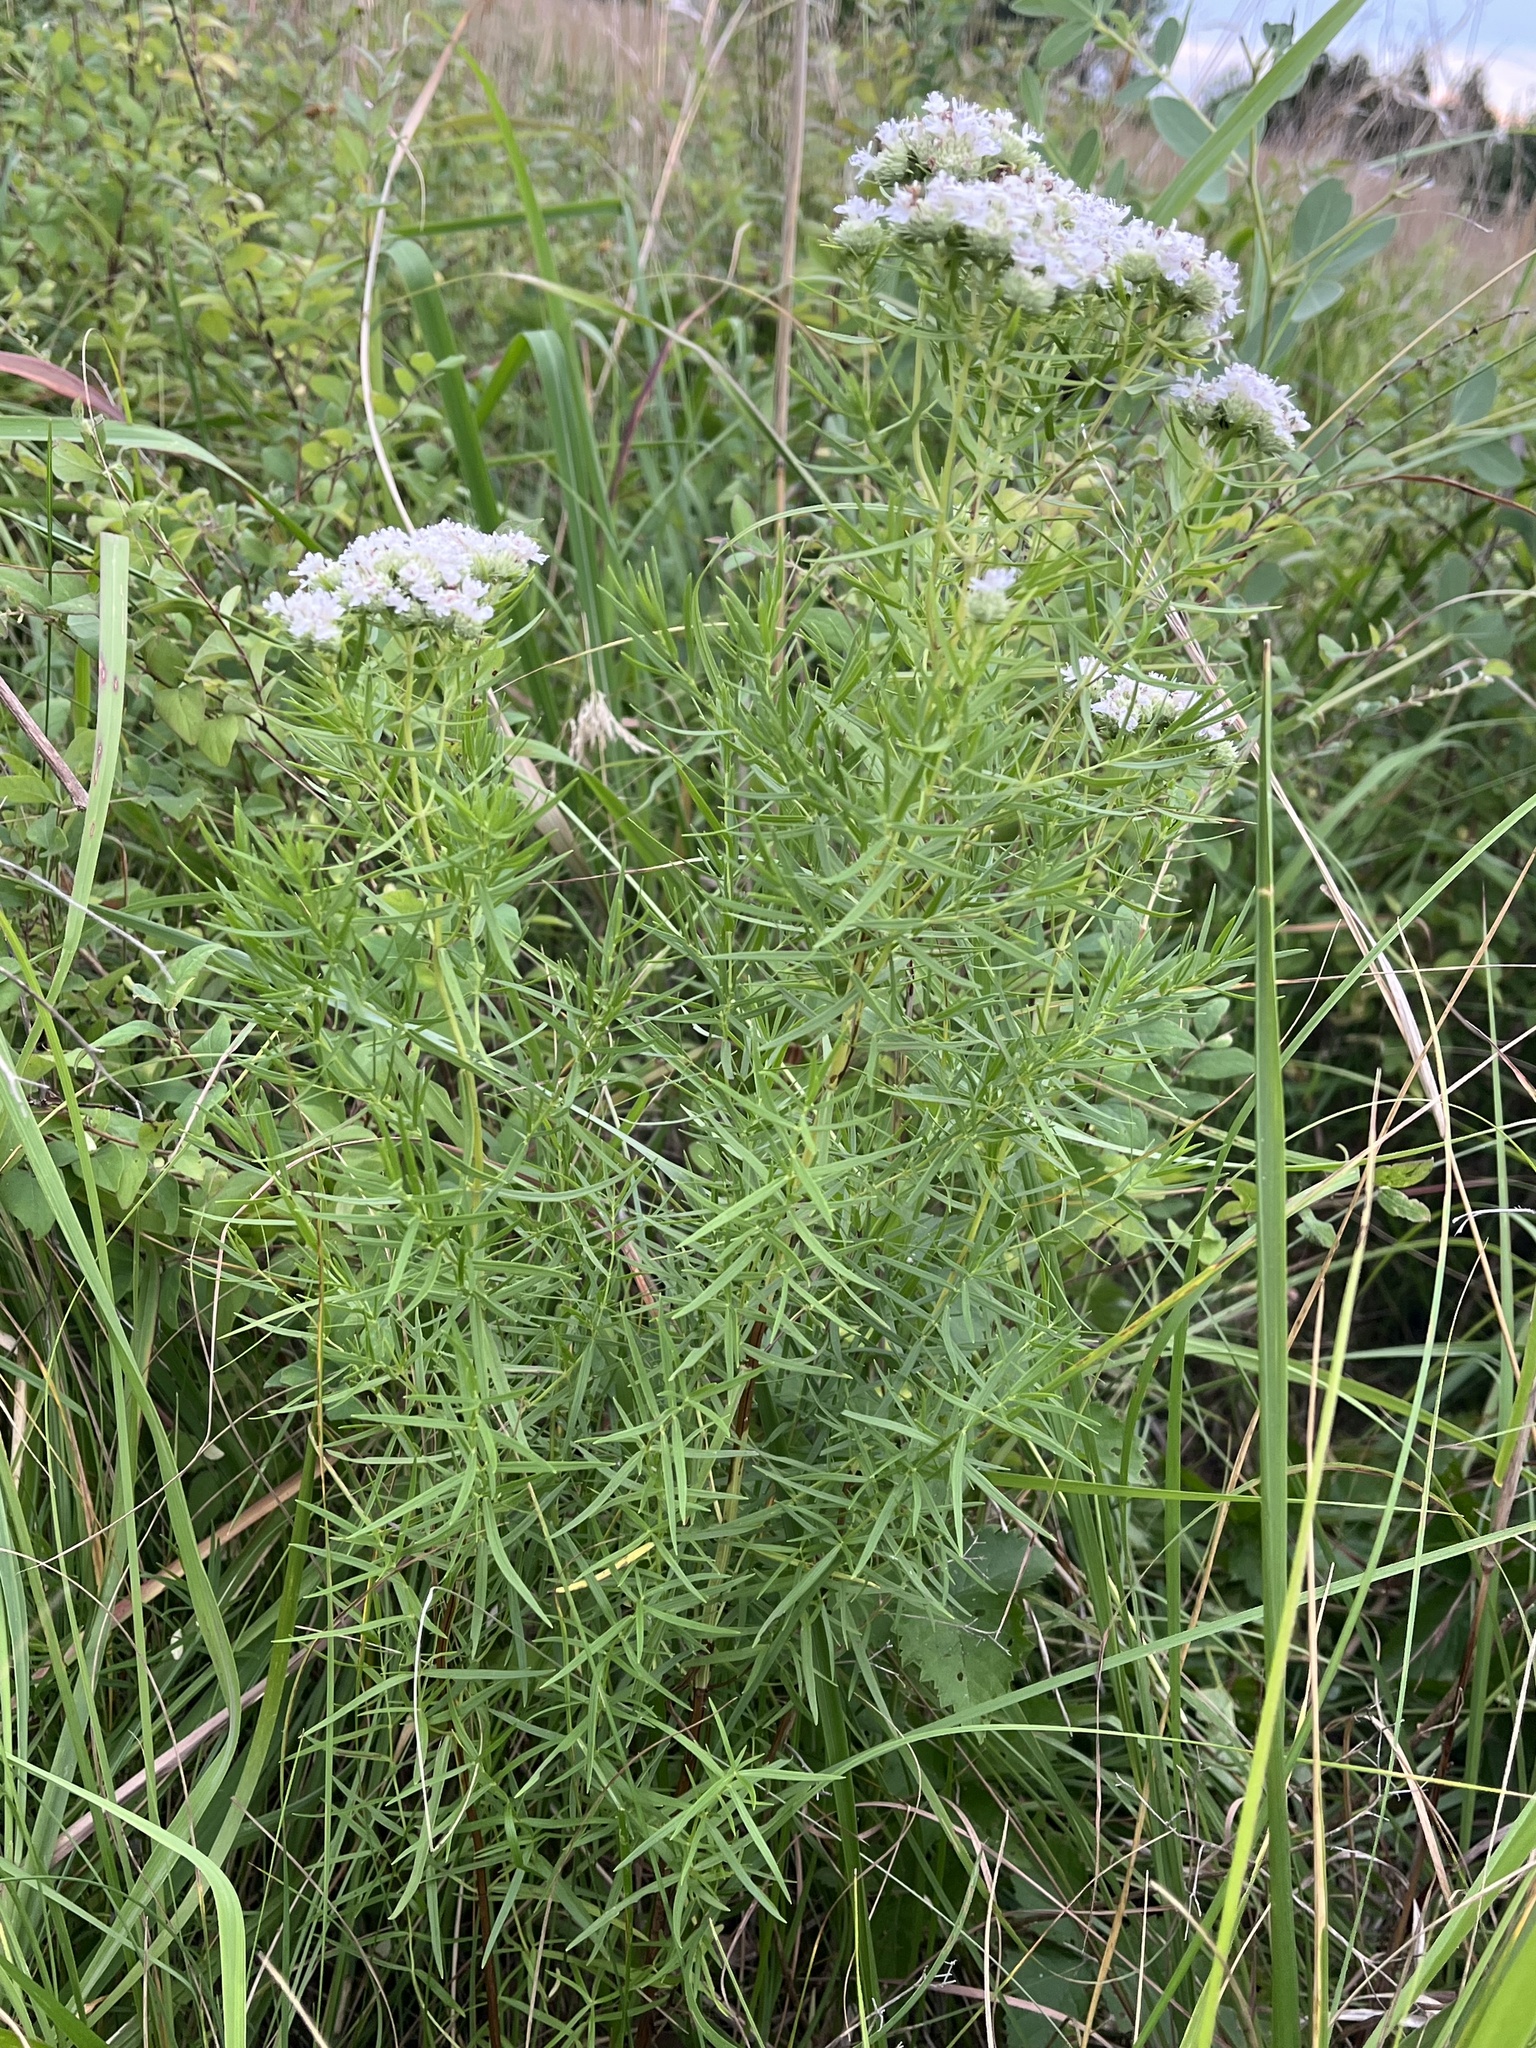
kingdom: Plantae
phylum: Tracheophyta
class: Magnoliopsida
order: Lamiales
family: Lamiaceae
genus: Pycnanthemum
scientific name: Pycnanthemum tenuifolium
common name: Narrow-leaf mountain-mint
